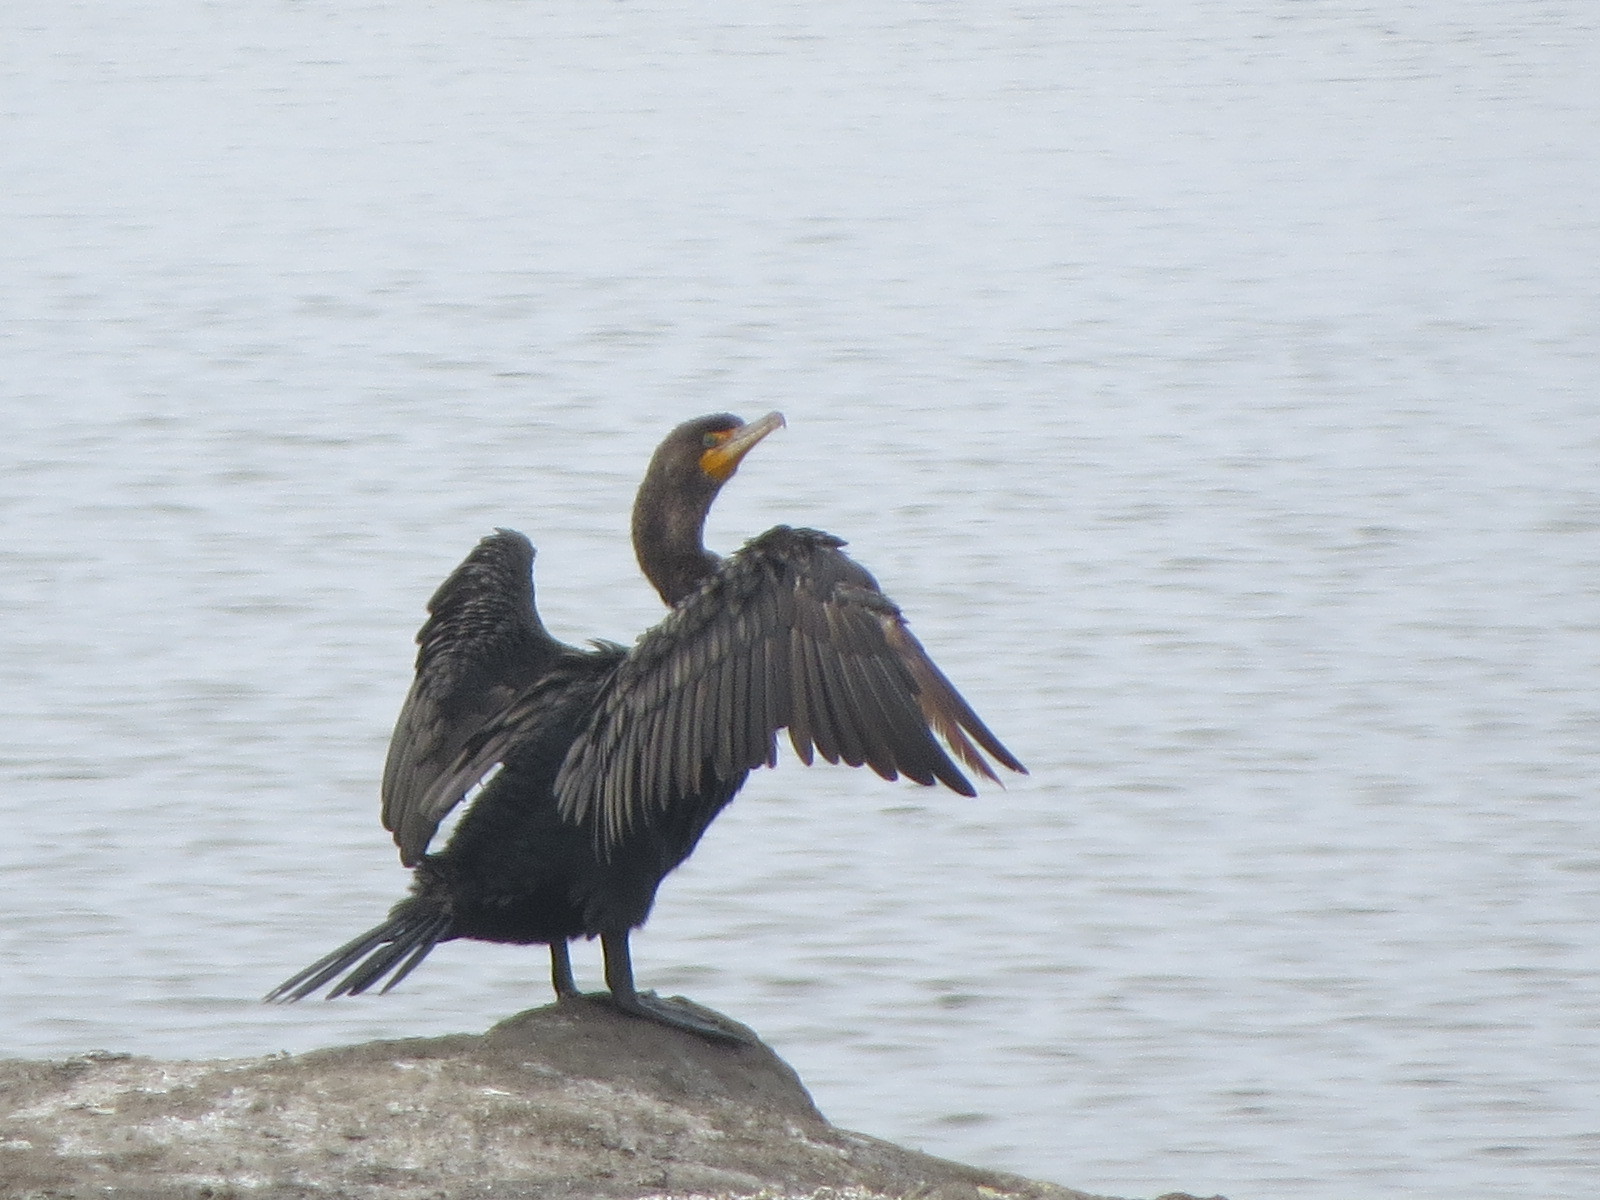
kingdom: Animalia
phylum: Chordata
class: Aves
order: Suliformes
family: Phalacrocoracidae
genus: Phalacrocorax
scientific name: Phalacrocorax auritus
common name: Double-crested cormorant
